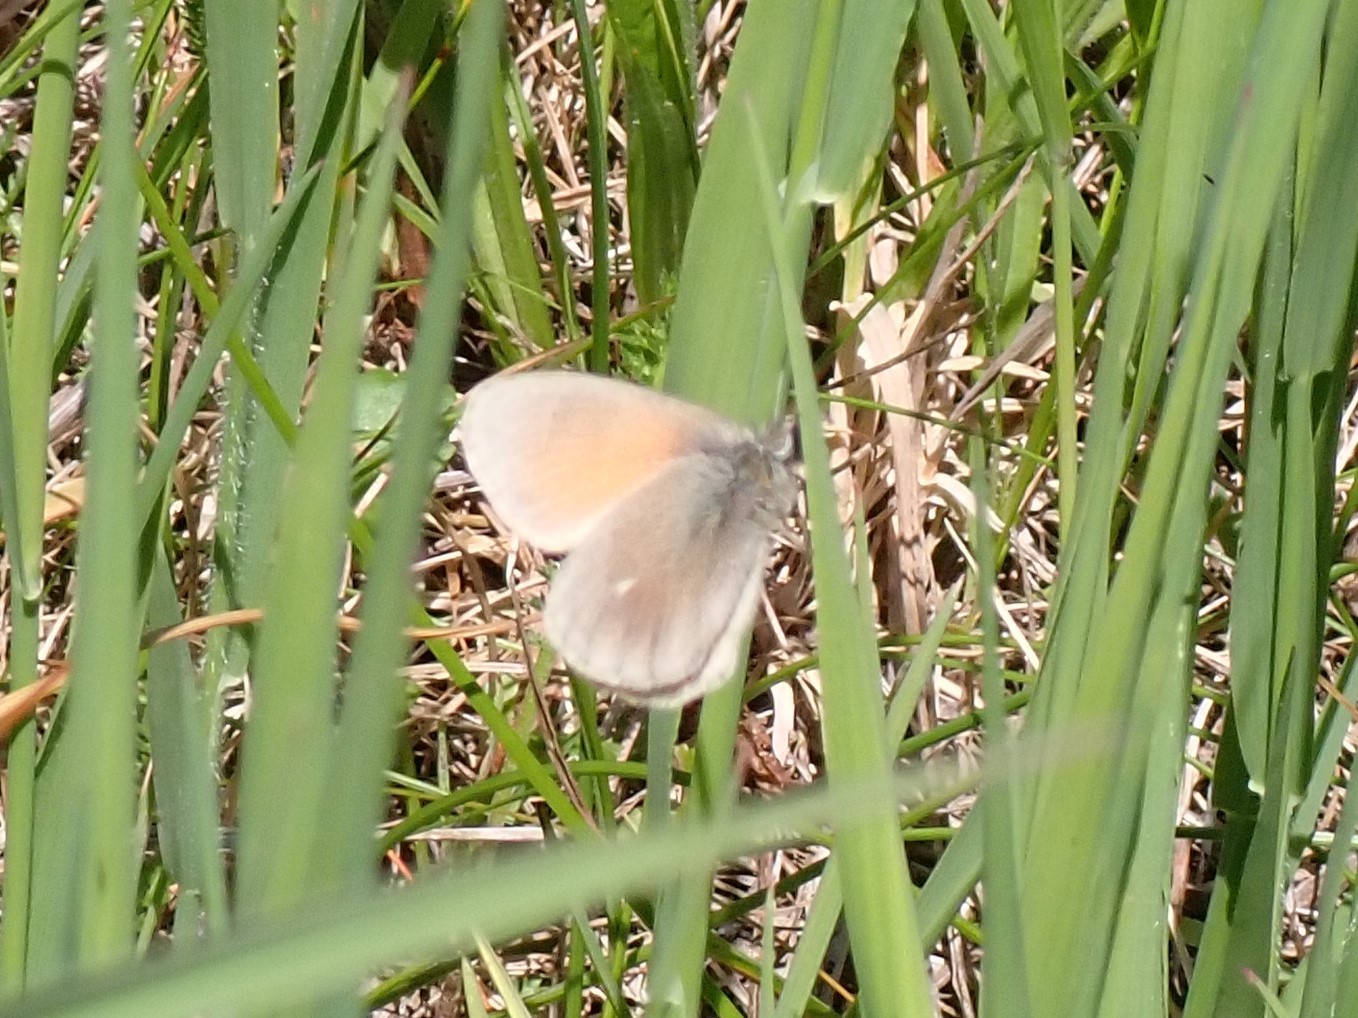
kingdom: Animalia
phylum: Arthropoda
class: Insecta
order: Lepidoptera
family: Nymphalidae
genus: Coenonympha
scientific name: Coenonympha california
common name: Common ringlet
